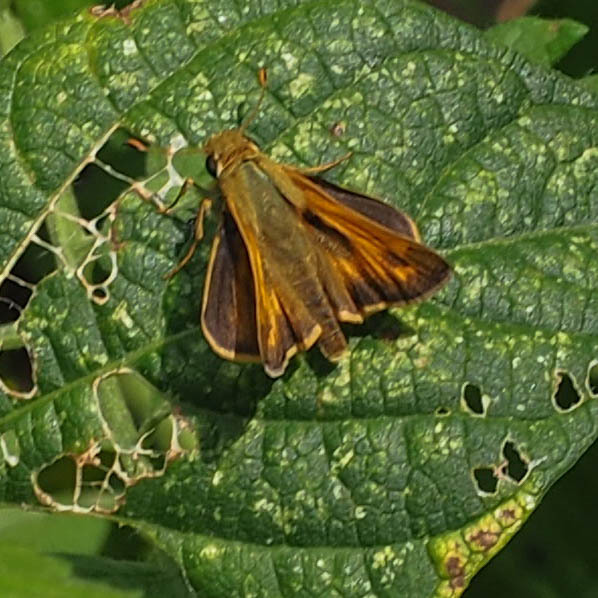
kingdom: Animalia
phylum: Arthropoda
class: Insecta
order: Lepidoptera
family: Hesperiidae
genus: Atalopedes
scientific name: Atalopedes
